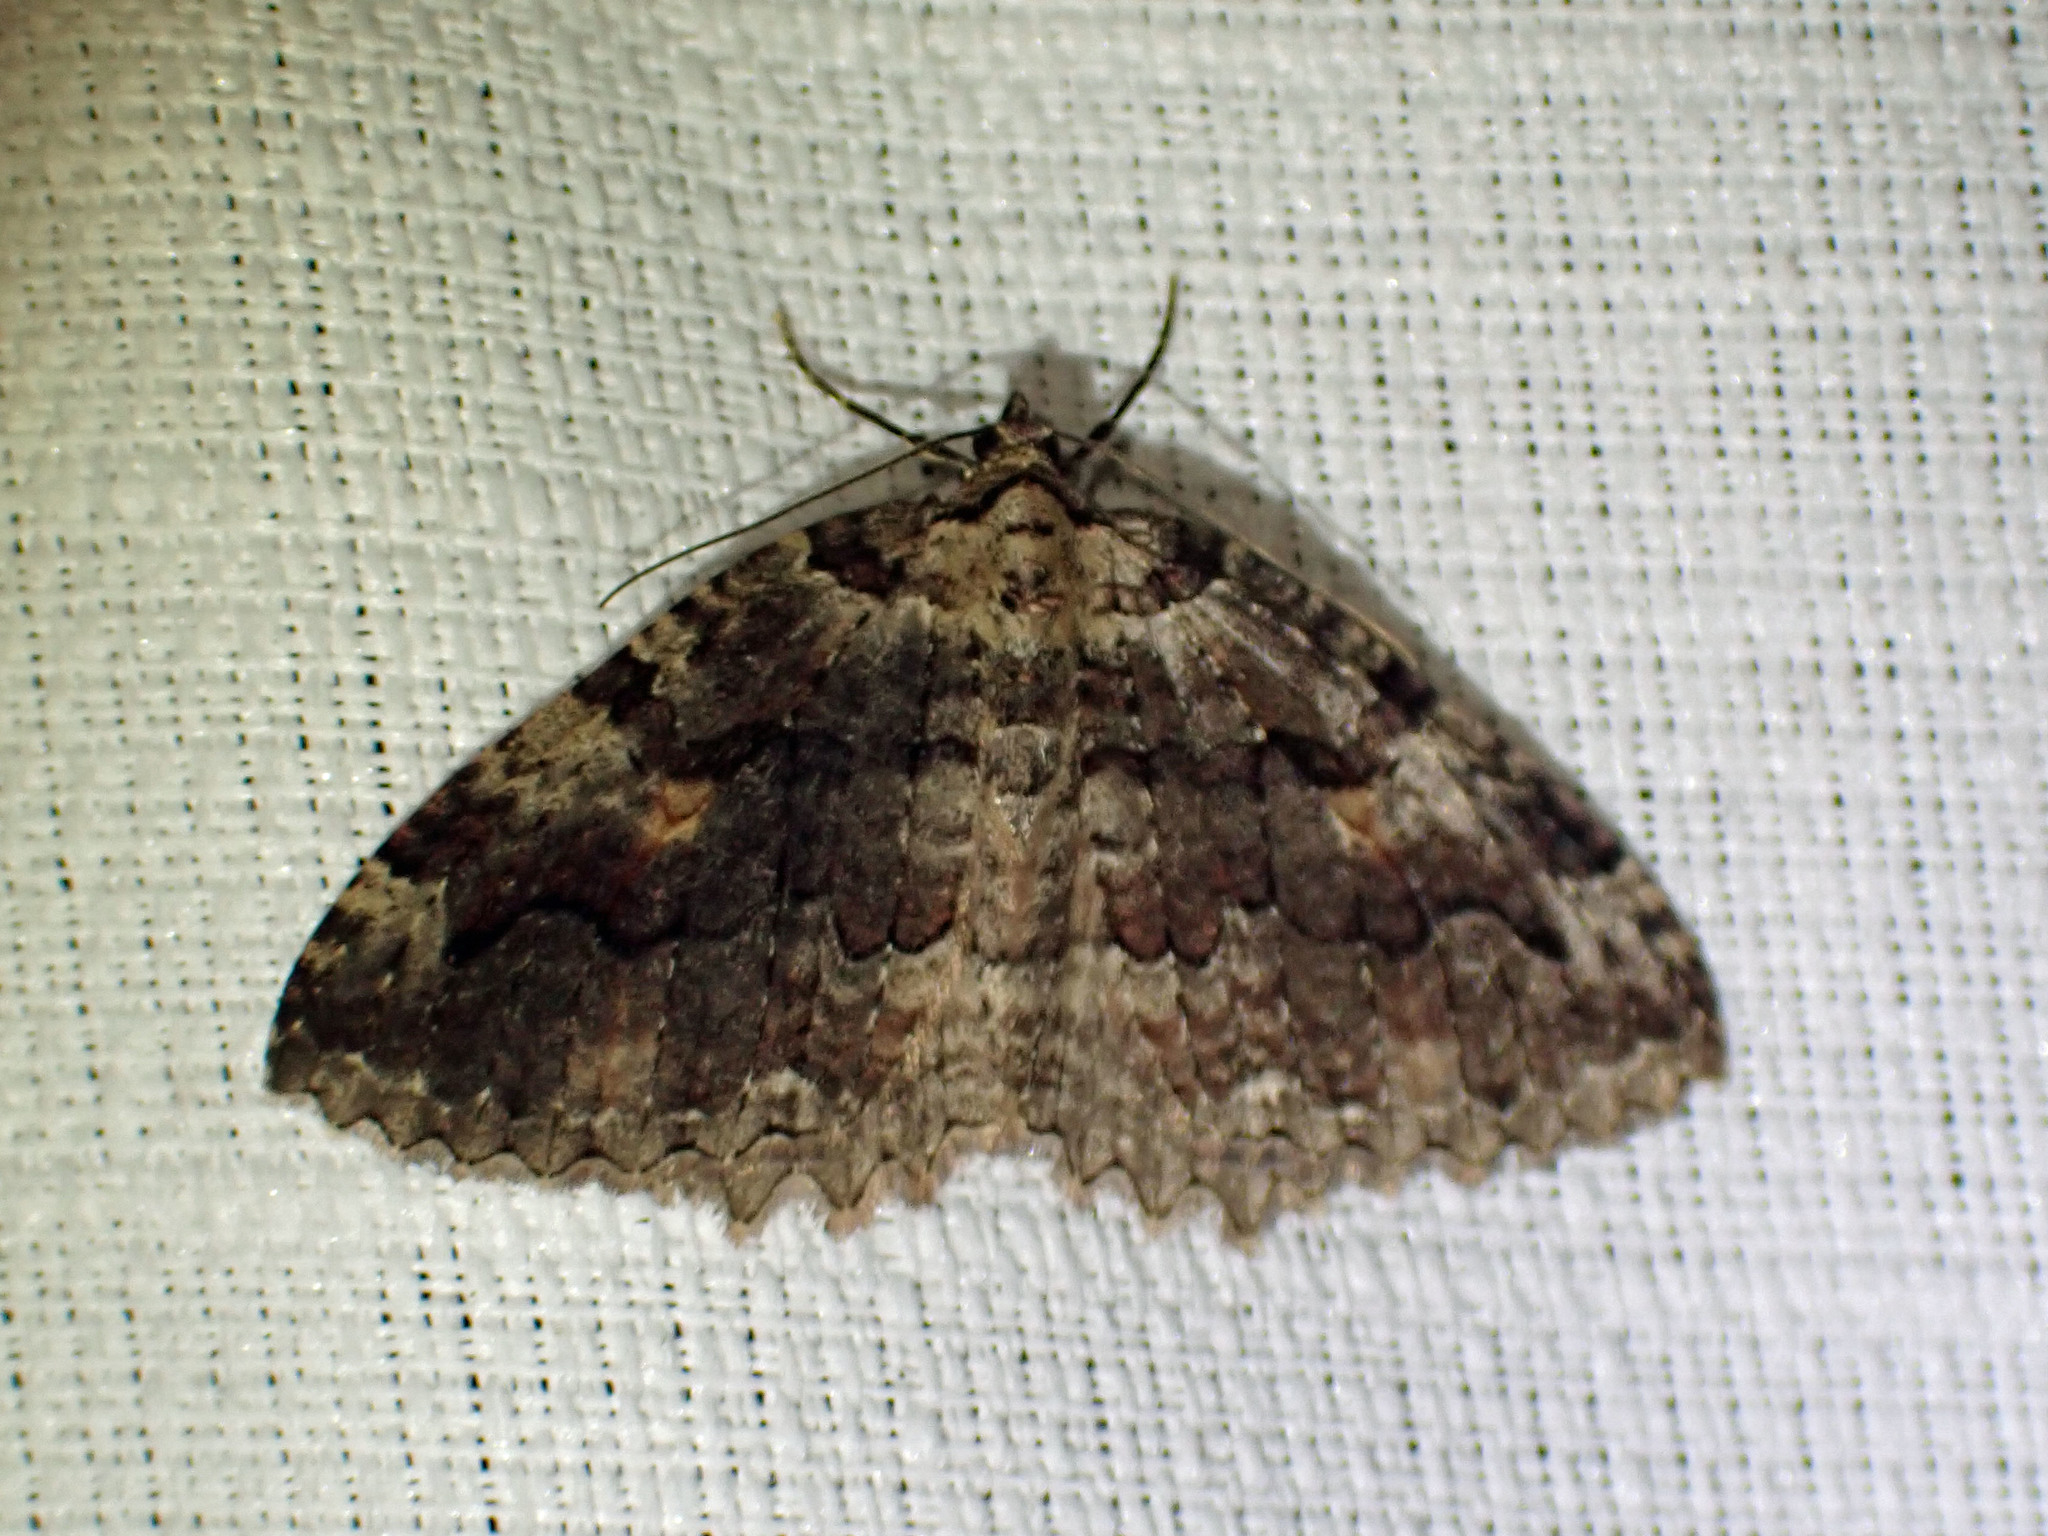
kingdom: Animalia
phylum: Arthropoda
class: Insecta
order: Lepidoptera
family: Geometridae
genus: Triphosa
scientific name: Triphosa haesitata
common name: Tissue moth
